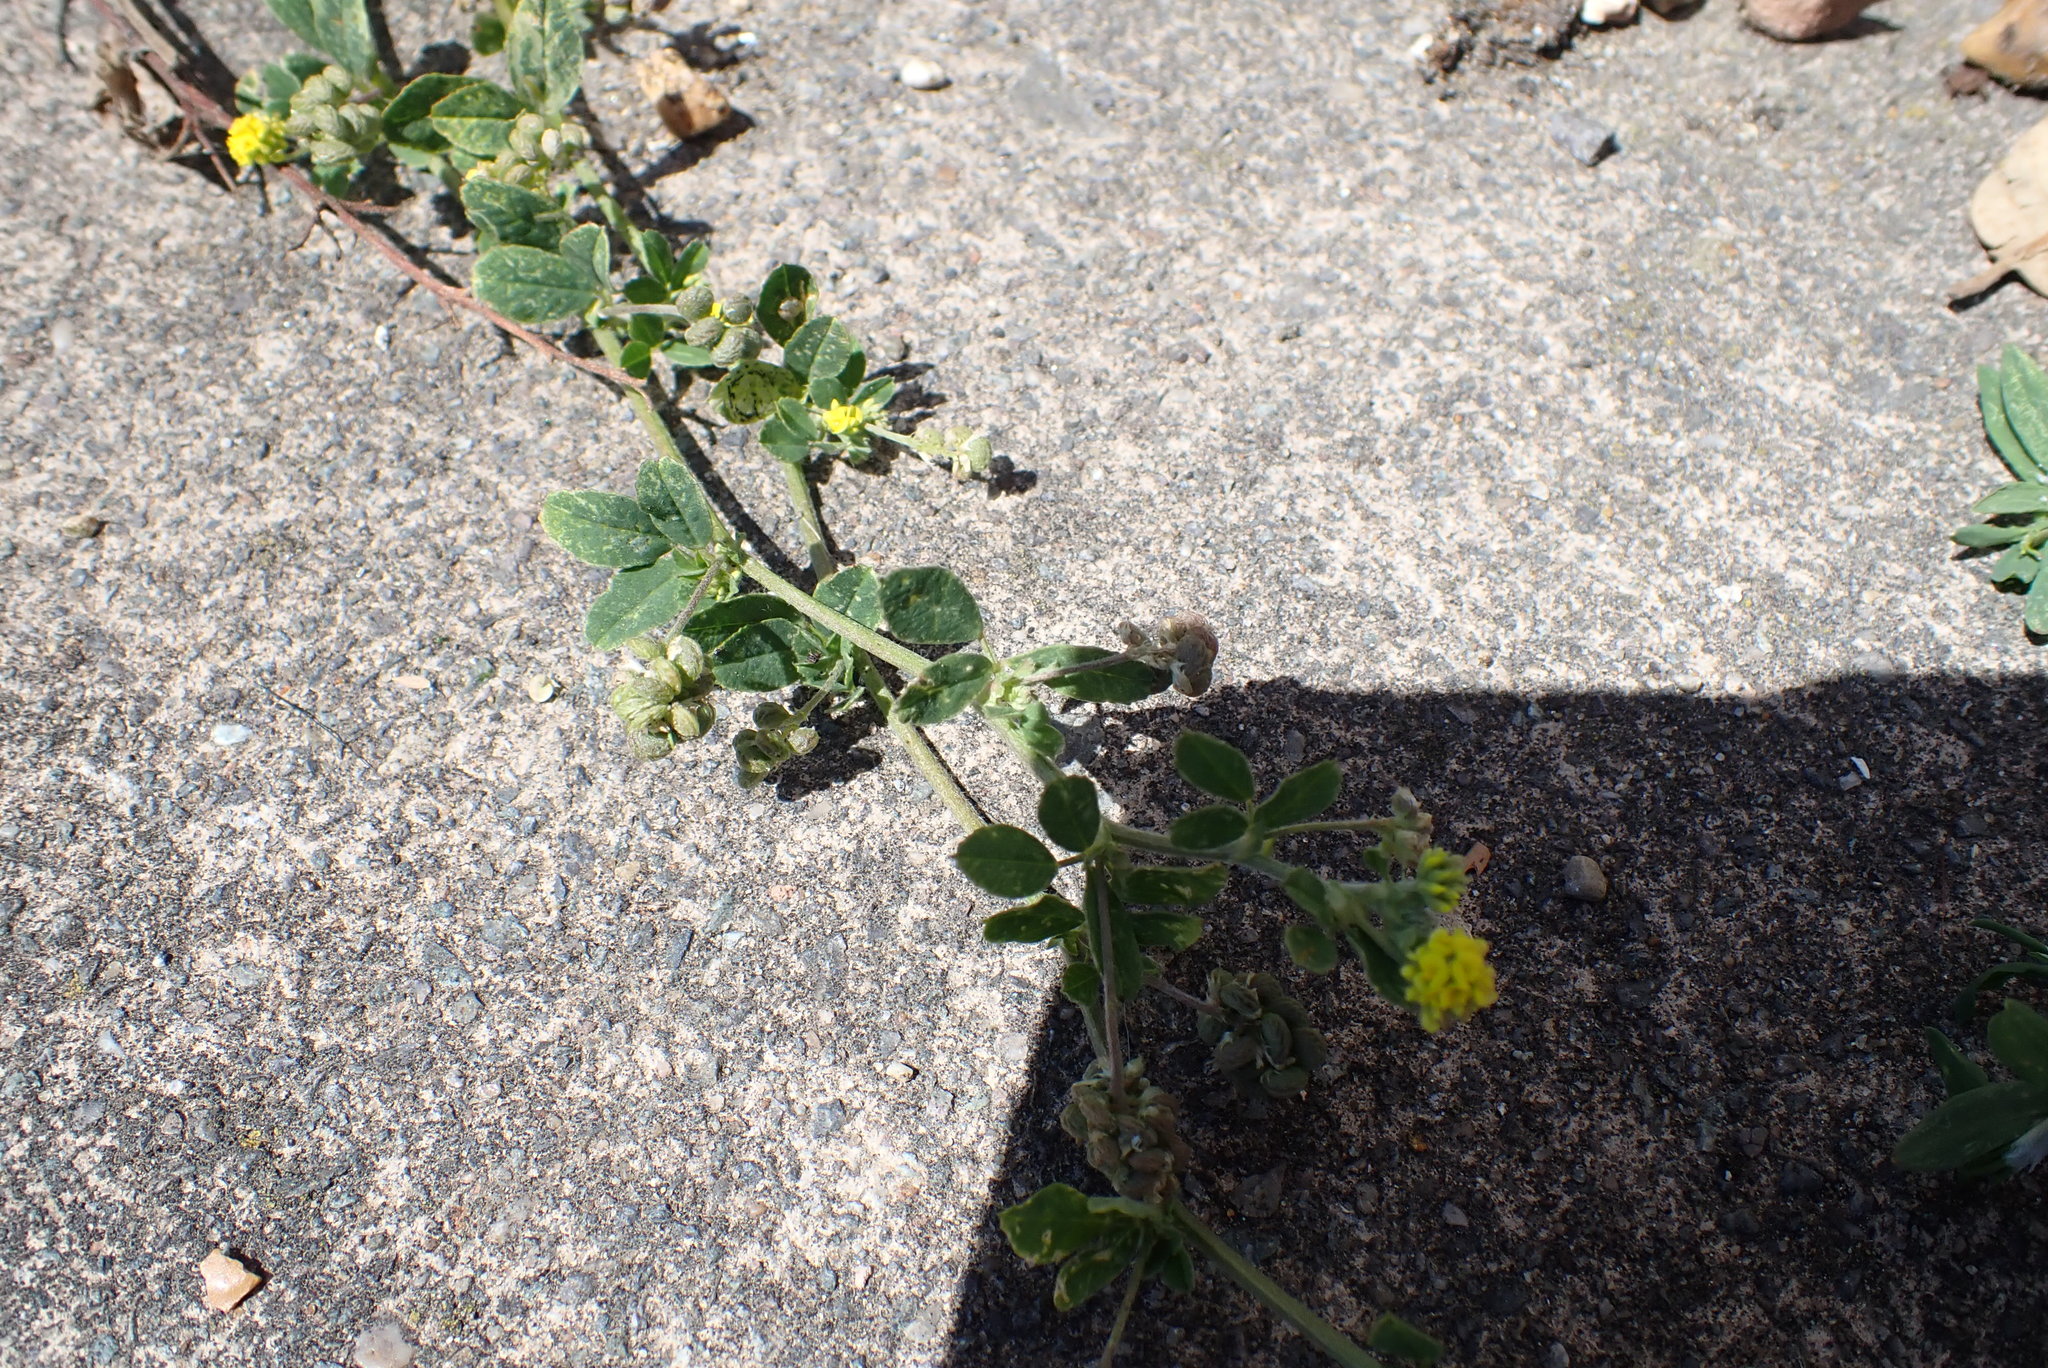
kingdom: Plantae
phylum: Tracheophyta
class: Magnoliopsida
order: Fabales
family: Fabaceae
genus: Medicago
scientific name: Medicago lupulina
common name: Black medick
